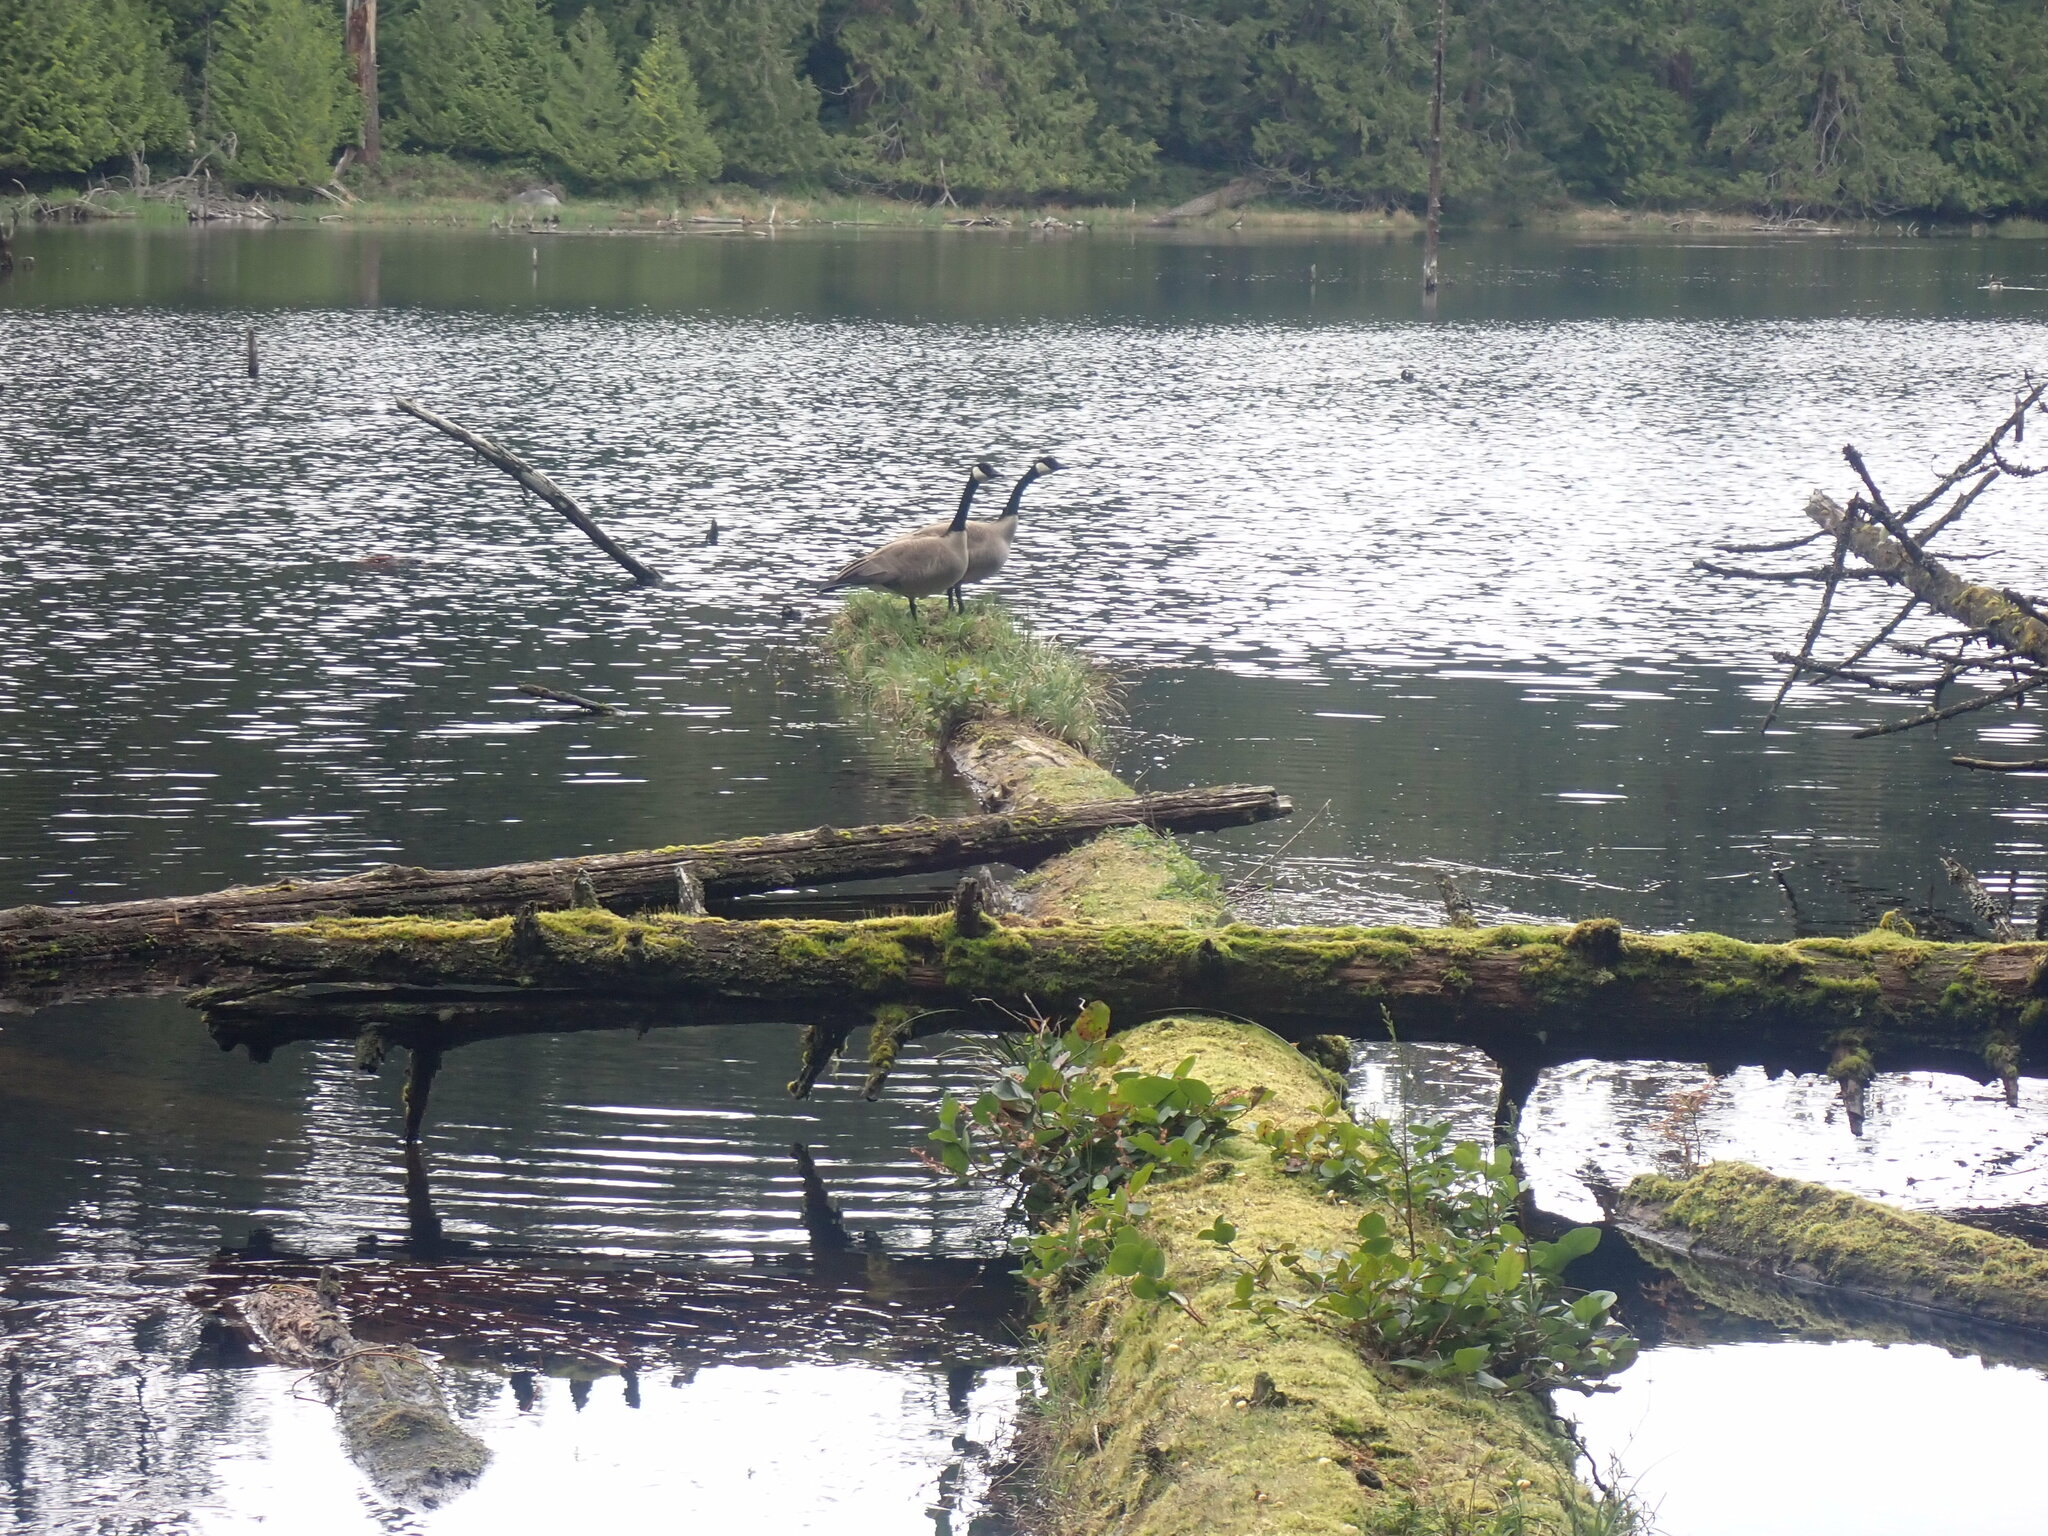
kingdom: Animalia
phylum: Chordata
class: Aves
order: Anseriformes
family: Anatidae
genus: Branta
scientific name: Branta canadensis
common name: Canada goose
